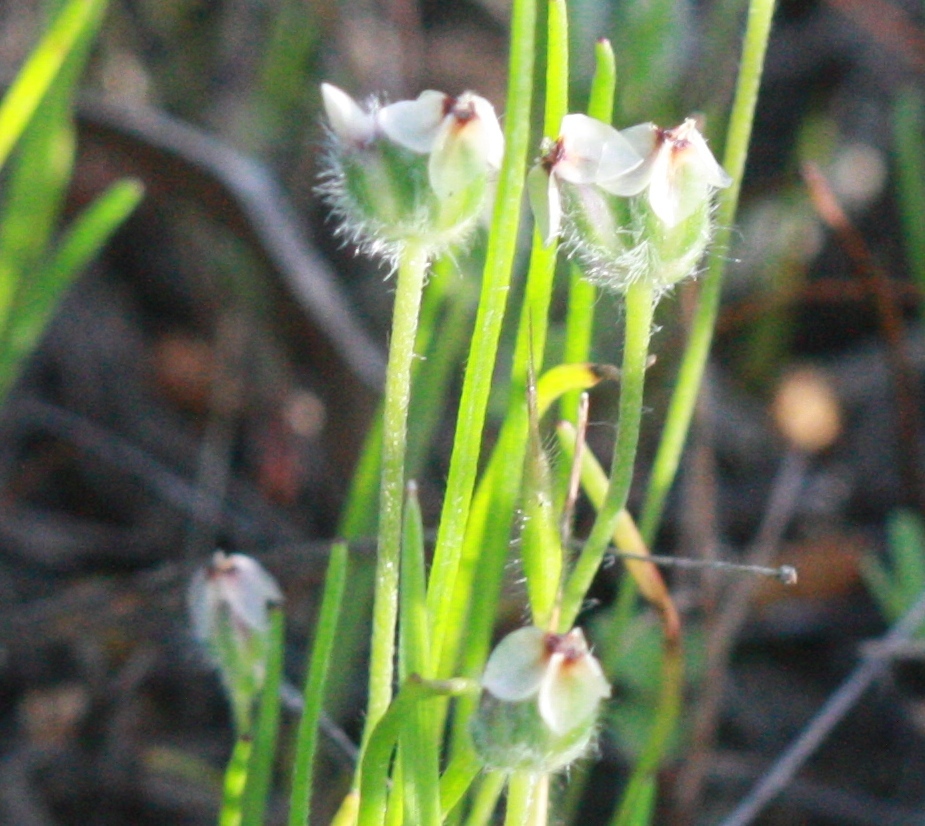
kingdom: Plantae
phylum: Tracheophyta
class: Magnoliopsida
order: Lamiales
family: Plantaginaceae
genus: Plantago
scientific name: Plantago erecta
